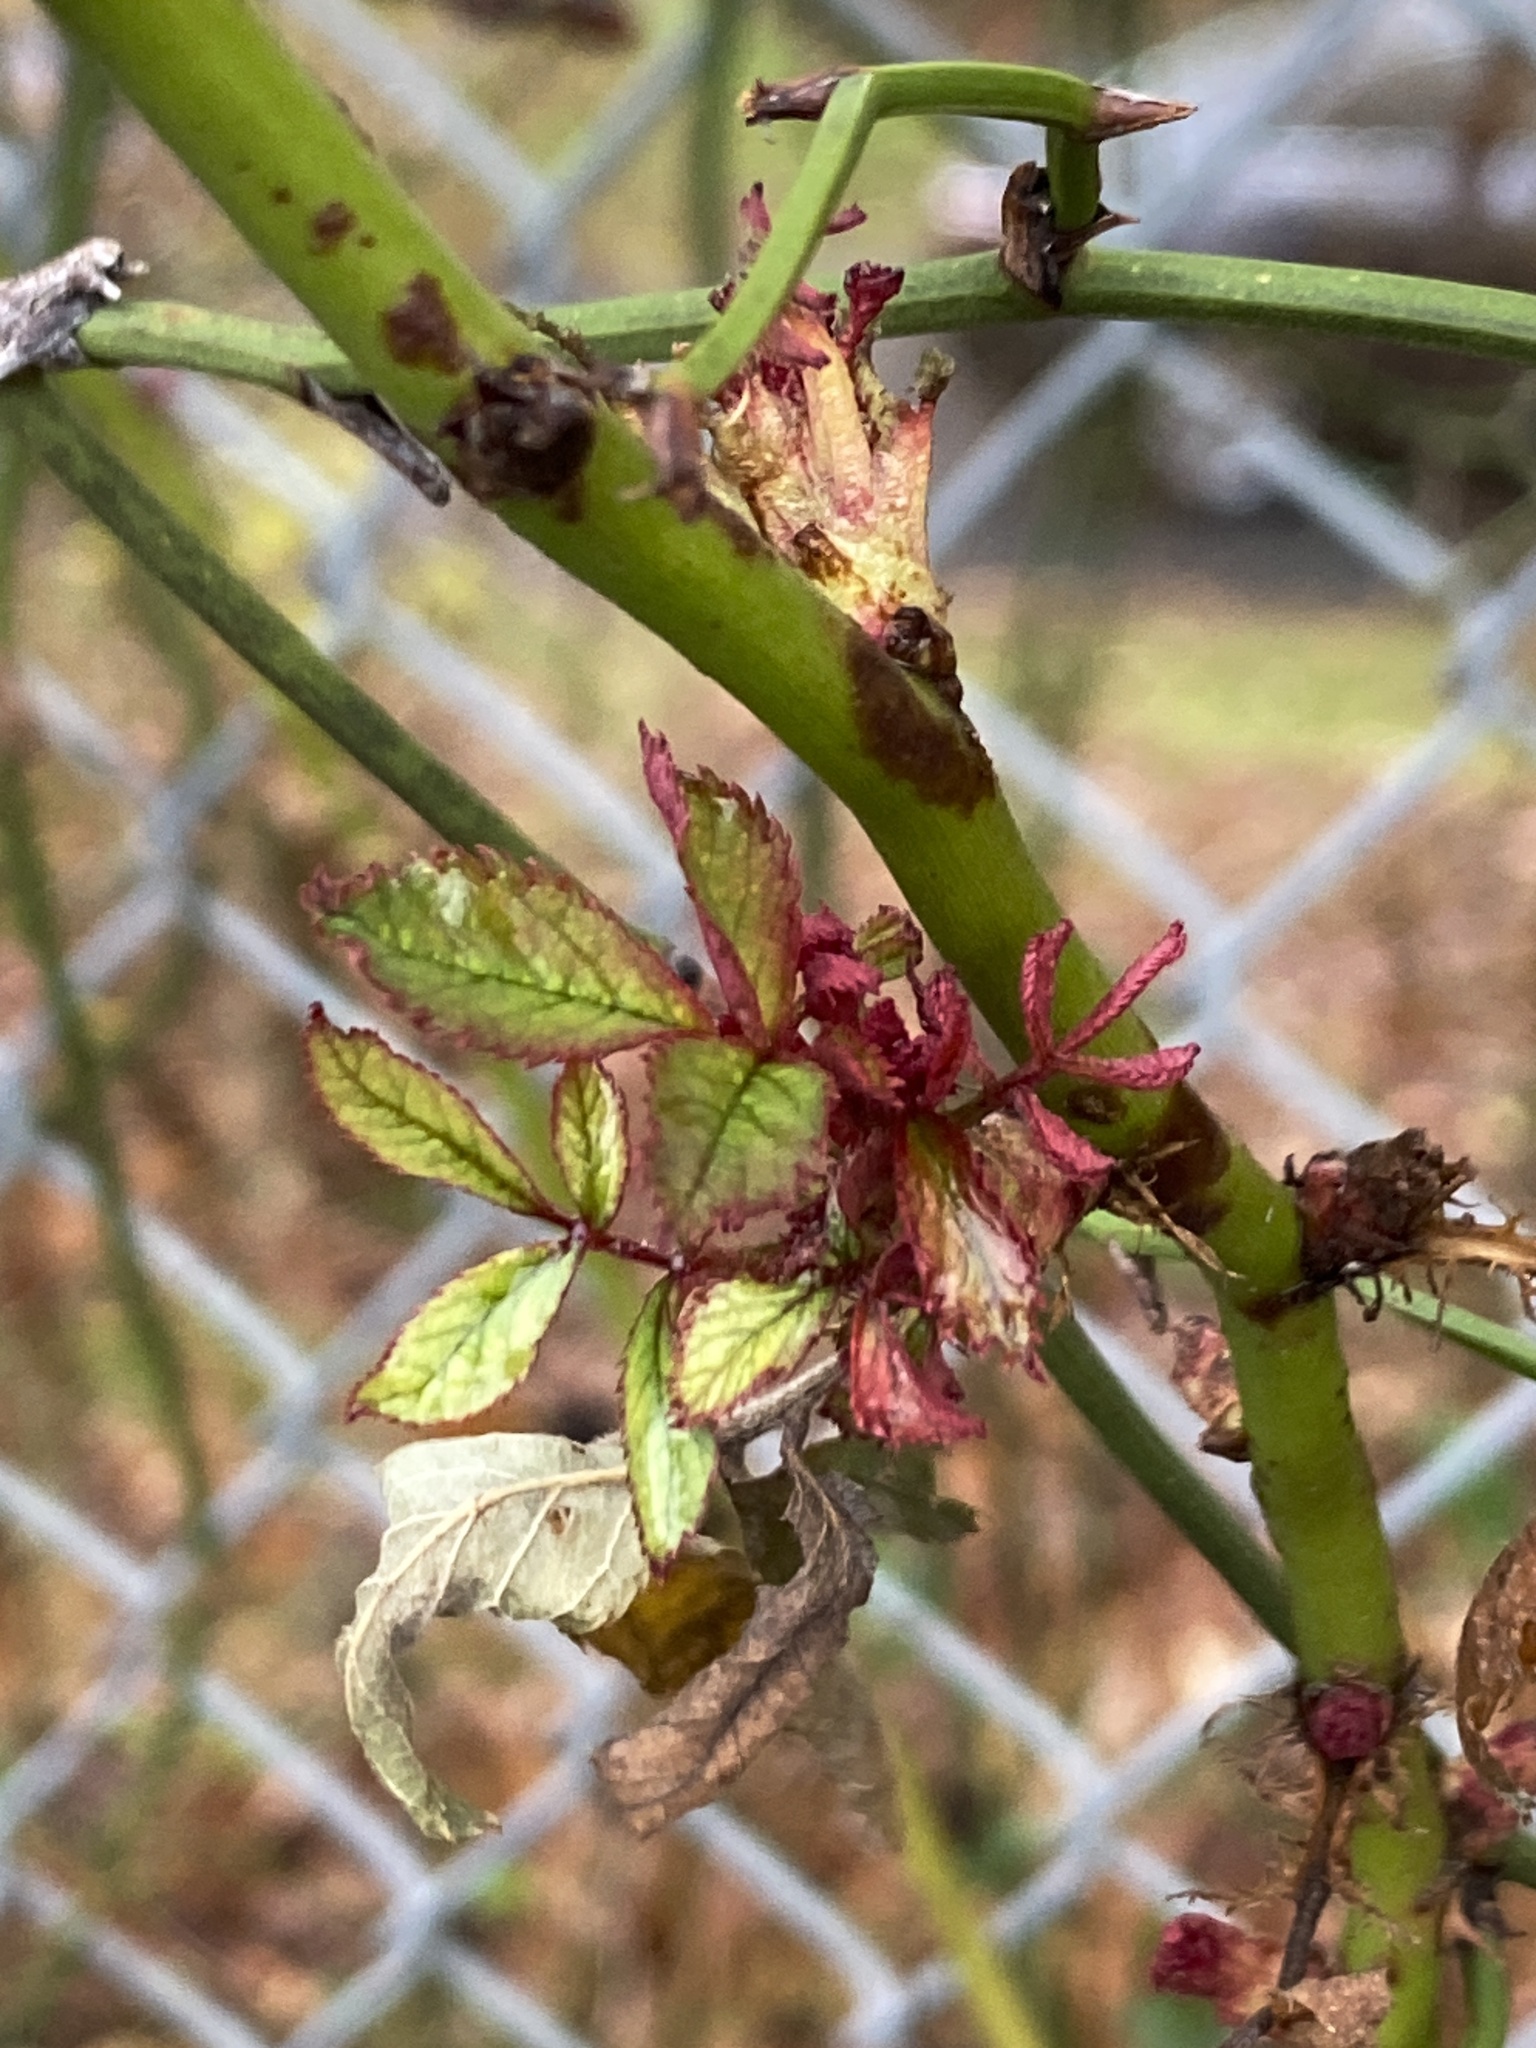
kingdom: Viruses
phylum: Negarnaviricota
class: Ellioviricetes
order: Bunyavirales
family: Fimoviridae
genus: Emaravirus
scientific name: Emaravirus rosae
